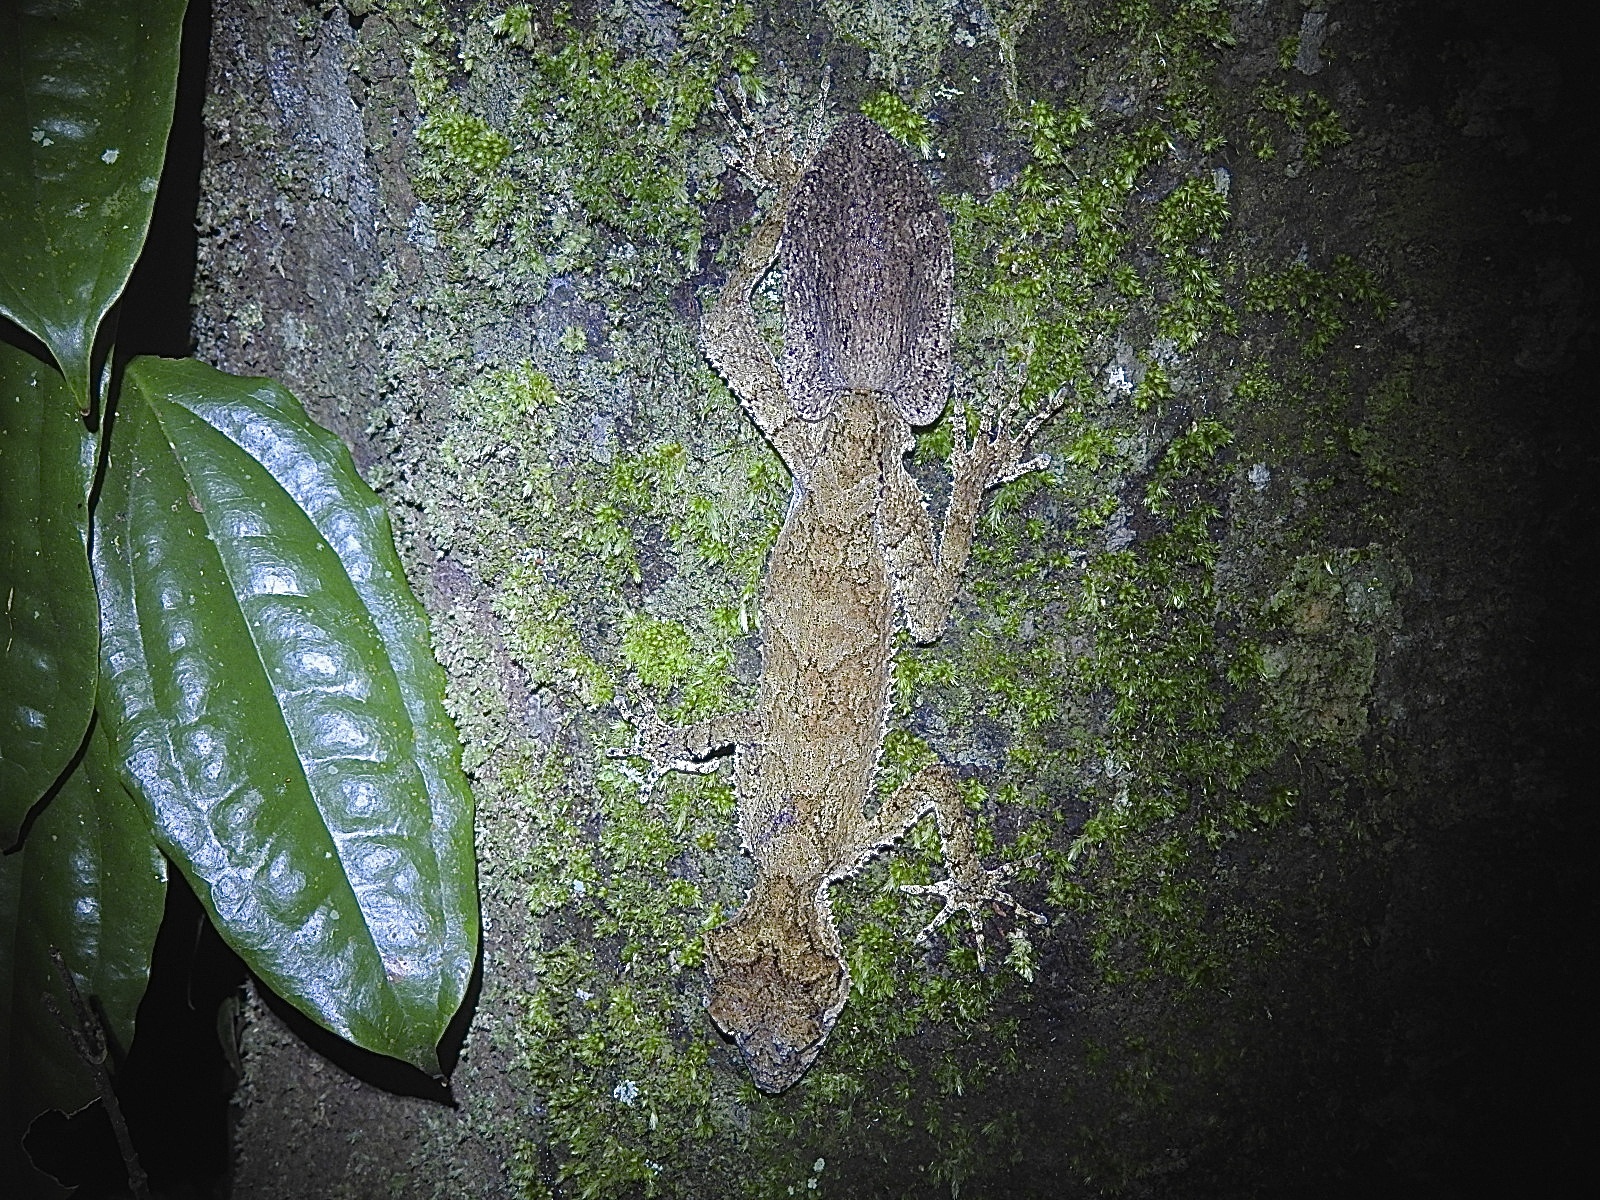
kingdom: Animalia
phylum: Chordata
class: Squamata
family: Carphodactylidae
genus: Saltuarius
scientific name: Saltuarius cornutus
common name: Leaf-tailed gecko
